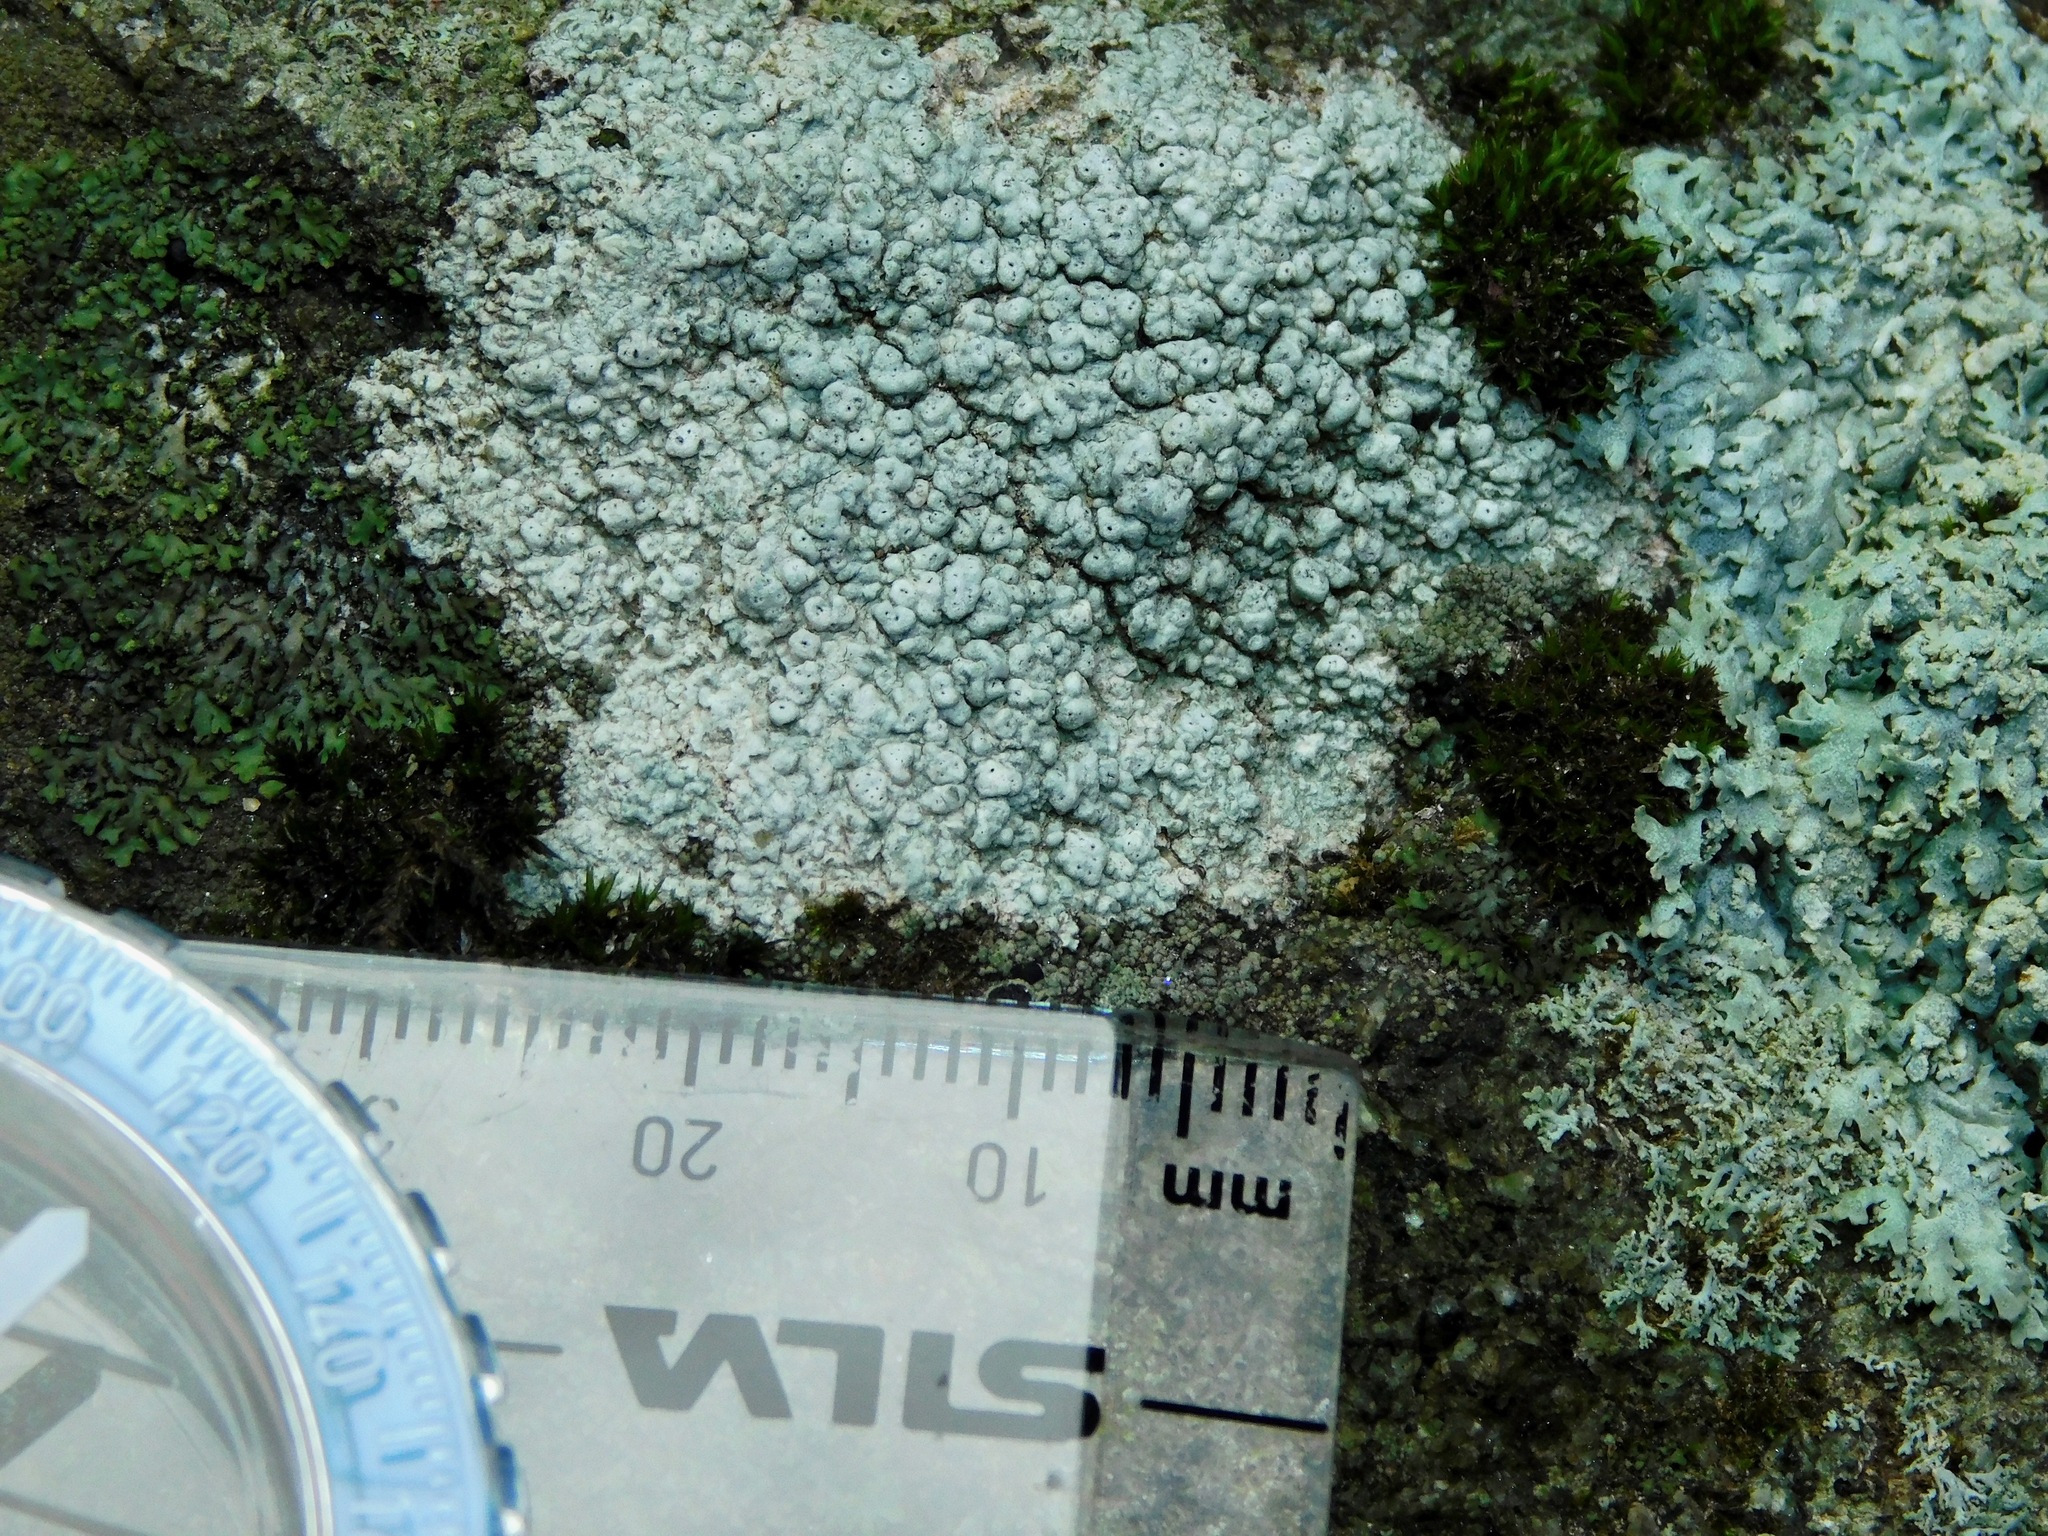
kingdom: Fungi
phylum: Ascomycota
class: Lecanoromycetes
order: Pertusariales
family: Pertusariaceae
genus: Pertusaria
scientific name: Pertusaria plittiana
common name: Rock wart lichen
